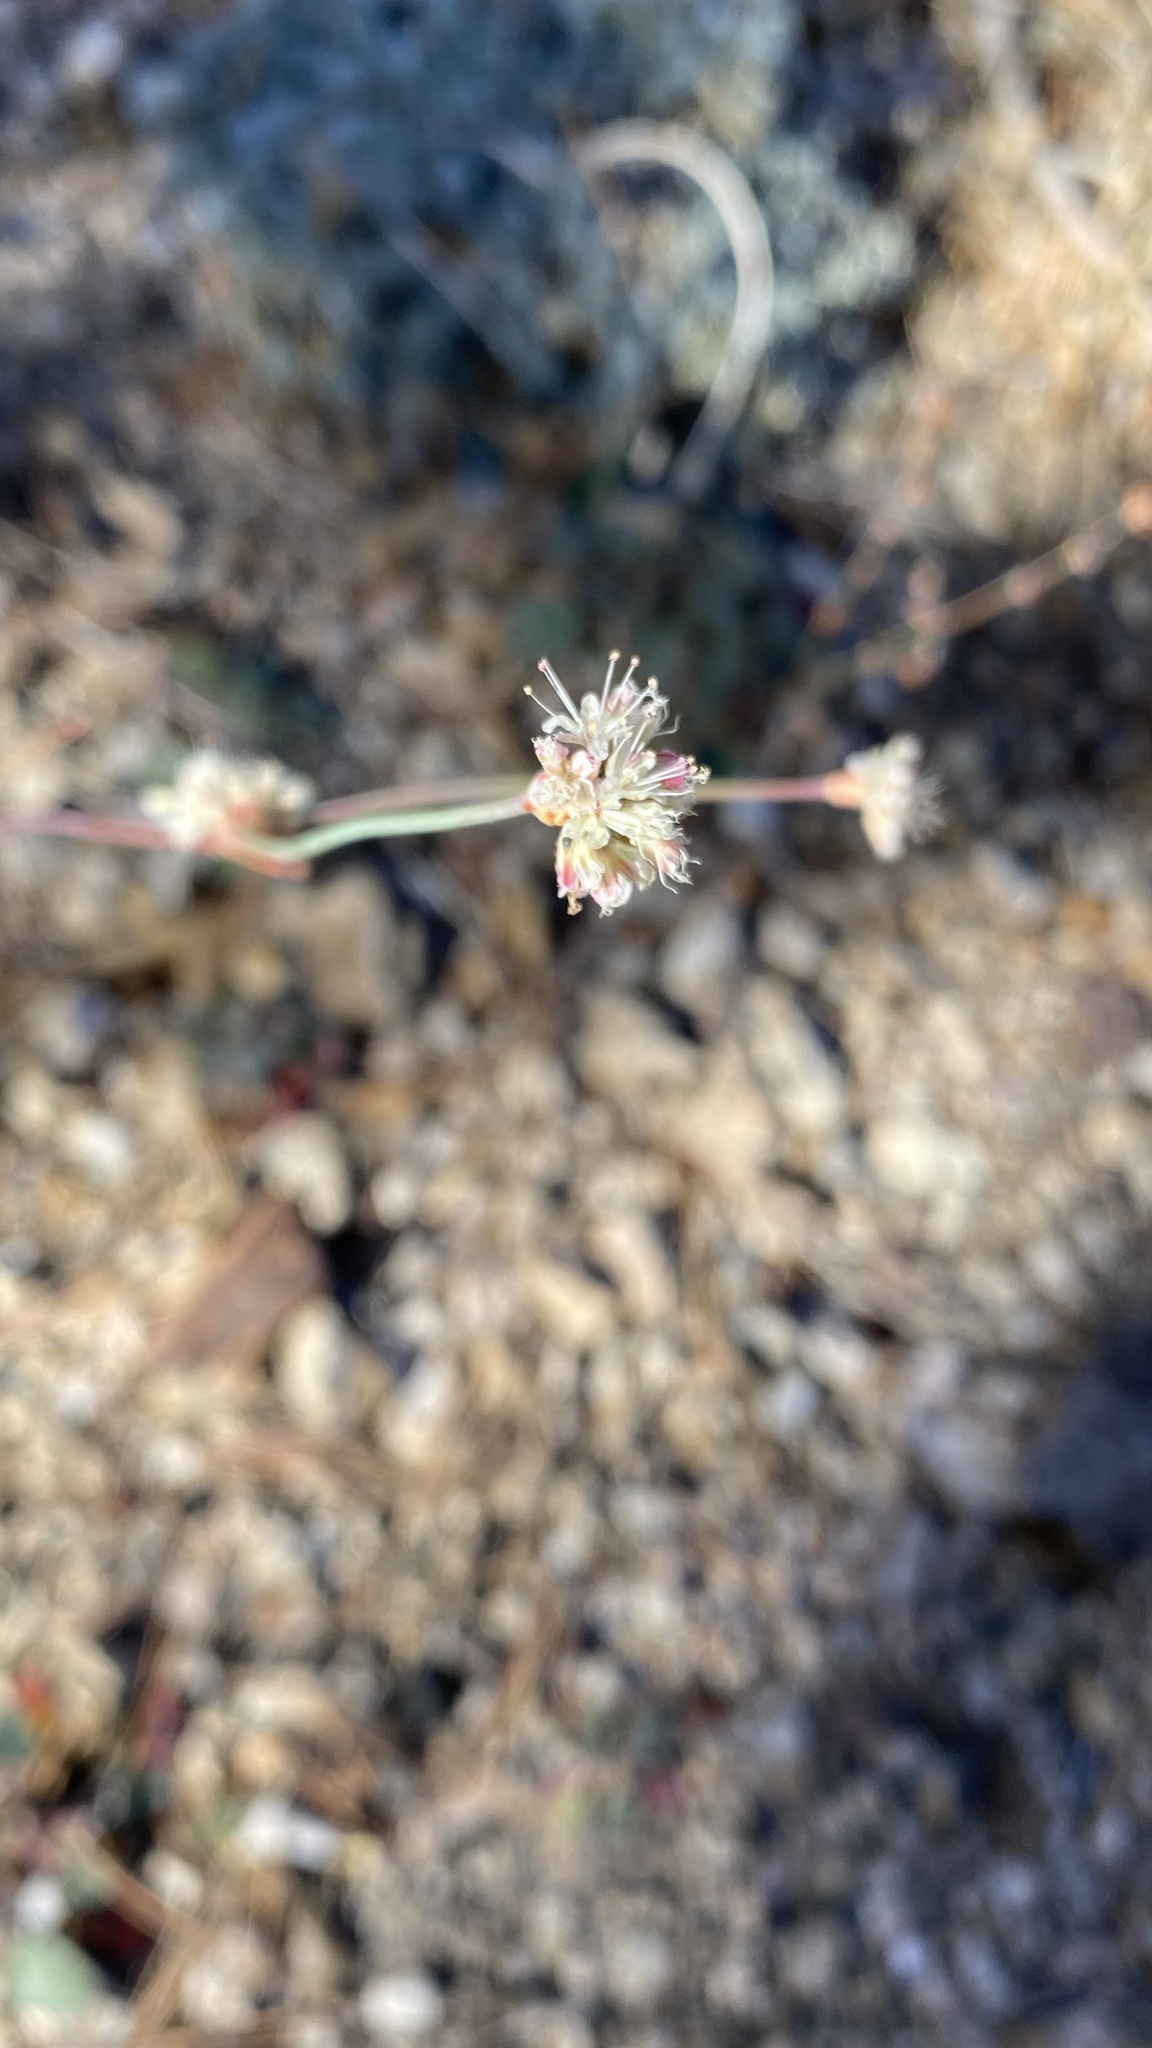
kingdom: Plantae
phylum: Tracheophyta
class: Magnoliopsida
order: Caryophyllales
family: Polygonaceae
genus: Eriogonum
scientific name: Eriogonum nudum
